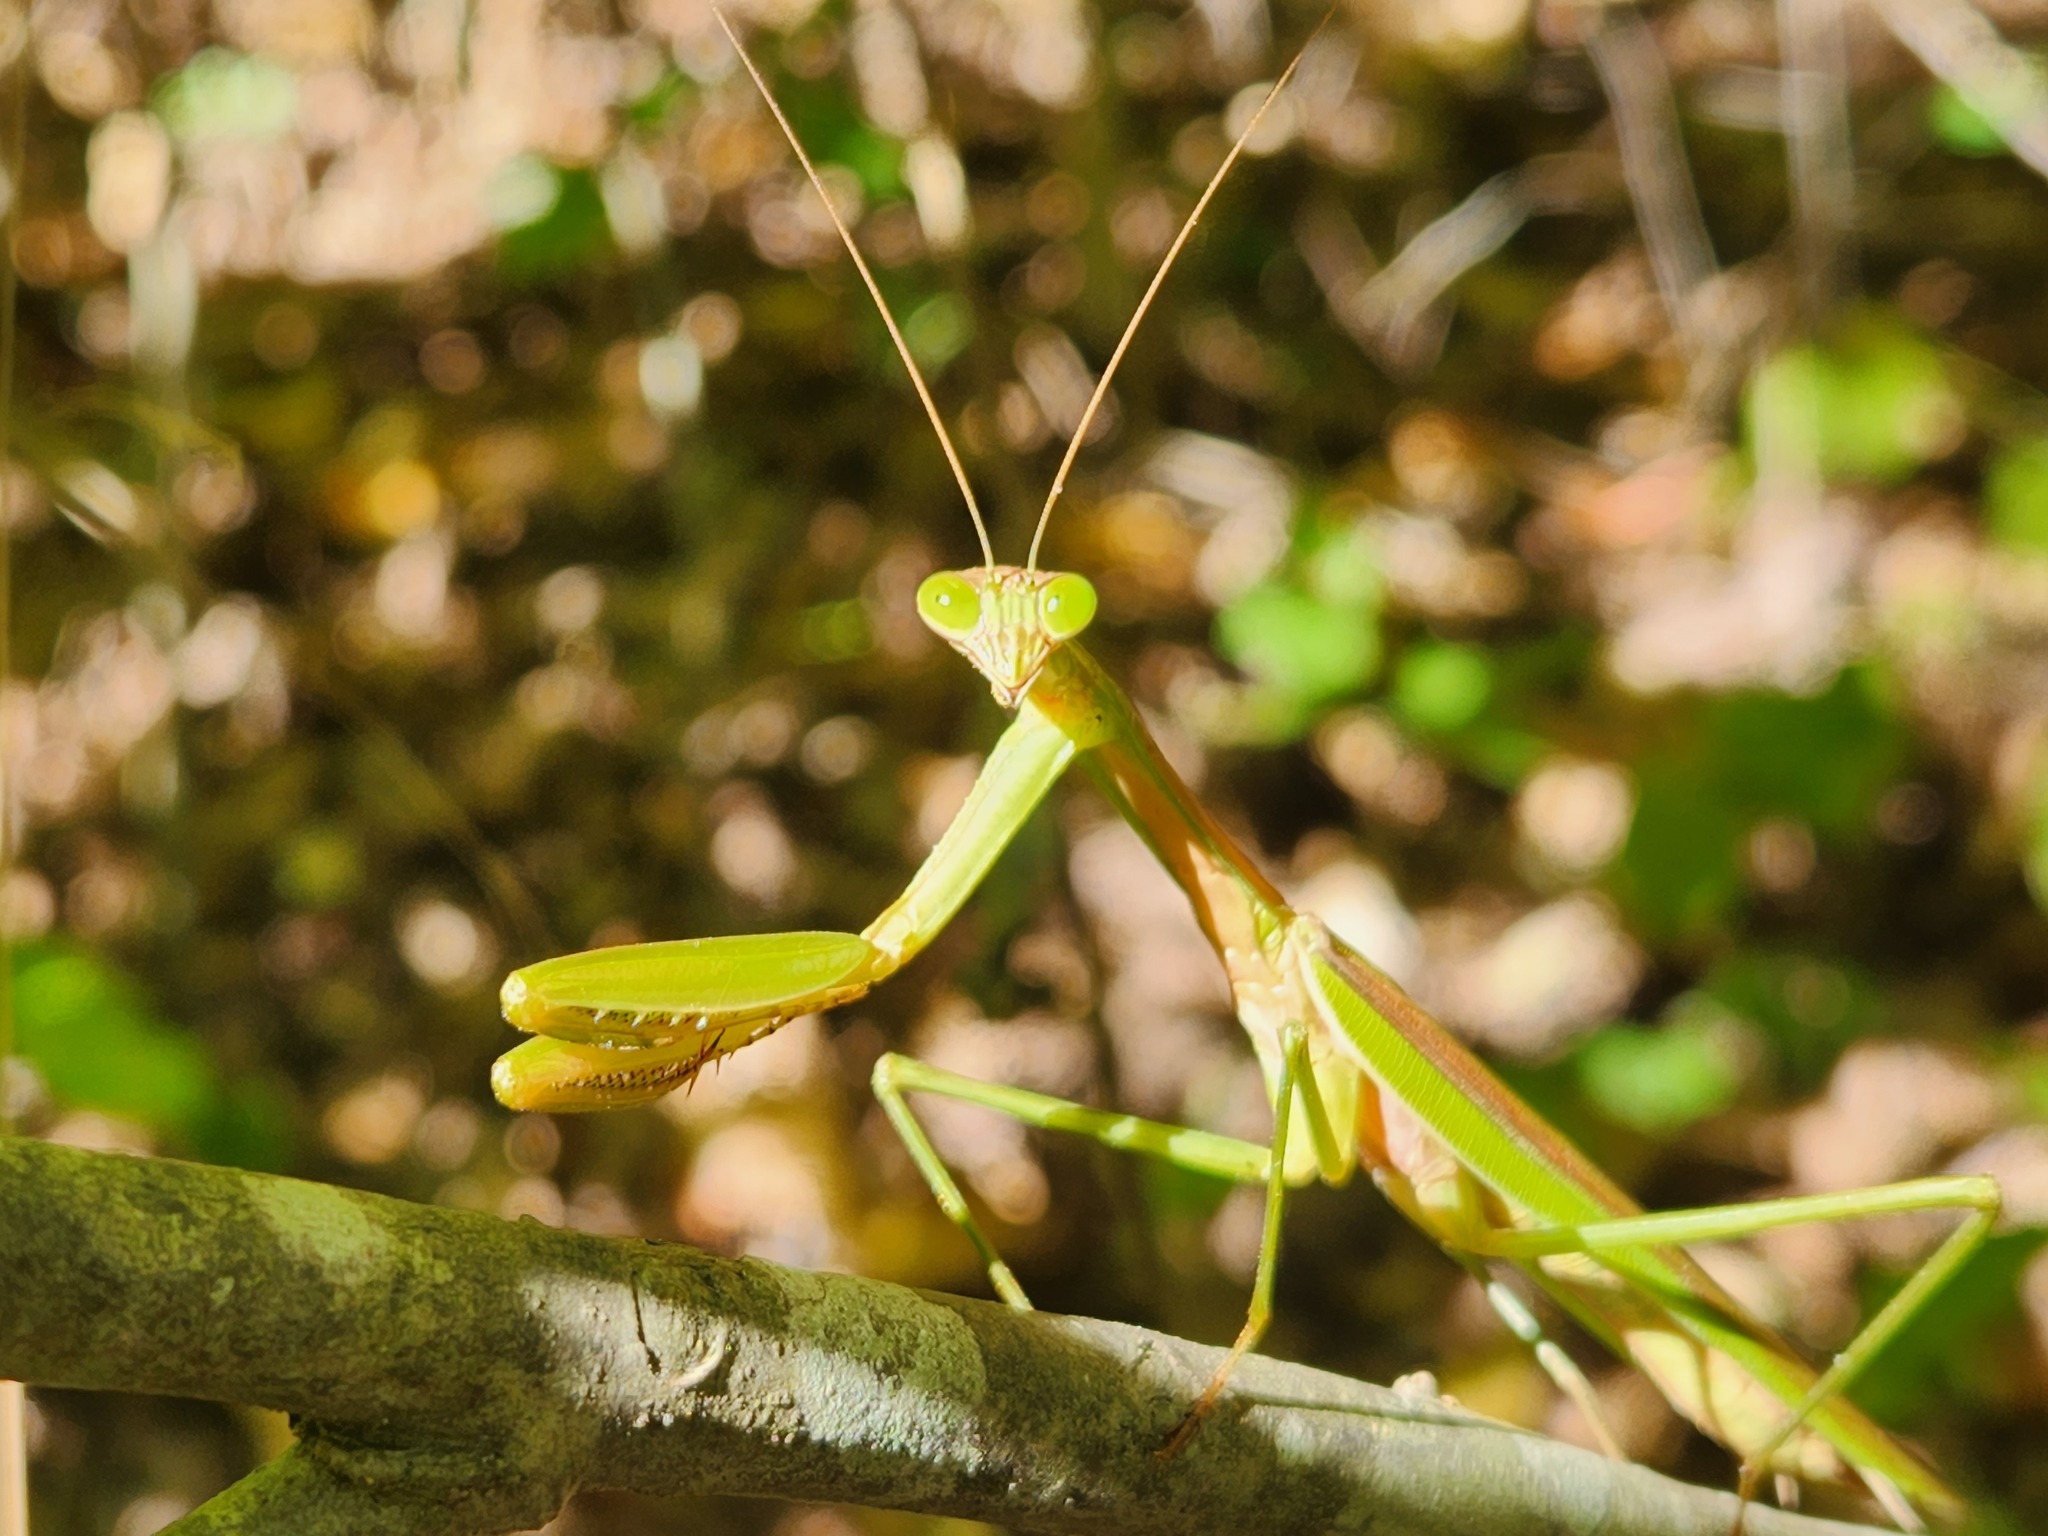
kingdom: Animalia
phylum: Arthropoda
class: Insecta
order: Mantodea
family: Mantidae
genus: Tenodera
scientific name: Tenodera sinensis
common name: Chinese mantis
